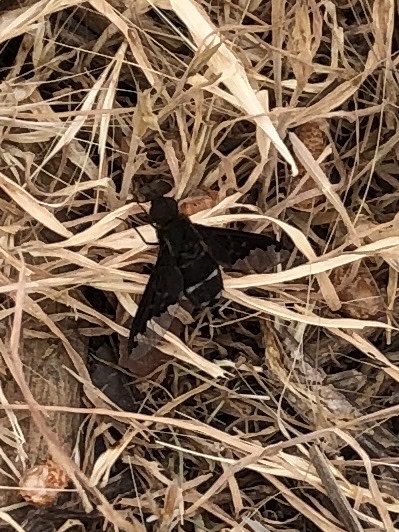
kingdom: Animalia
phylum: Arthropoda
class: Insecta
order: Diptera
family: Bombyliidae
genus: Hemipenthes
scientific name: Hemipenthes velutina
